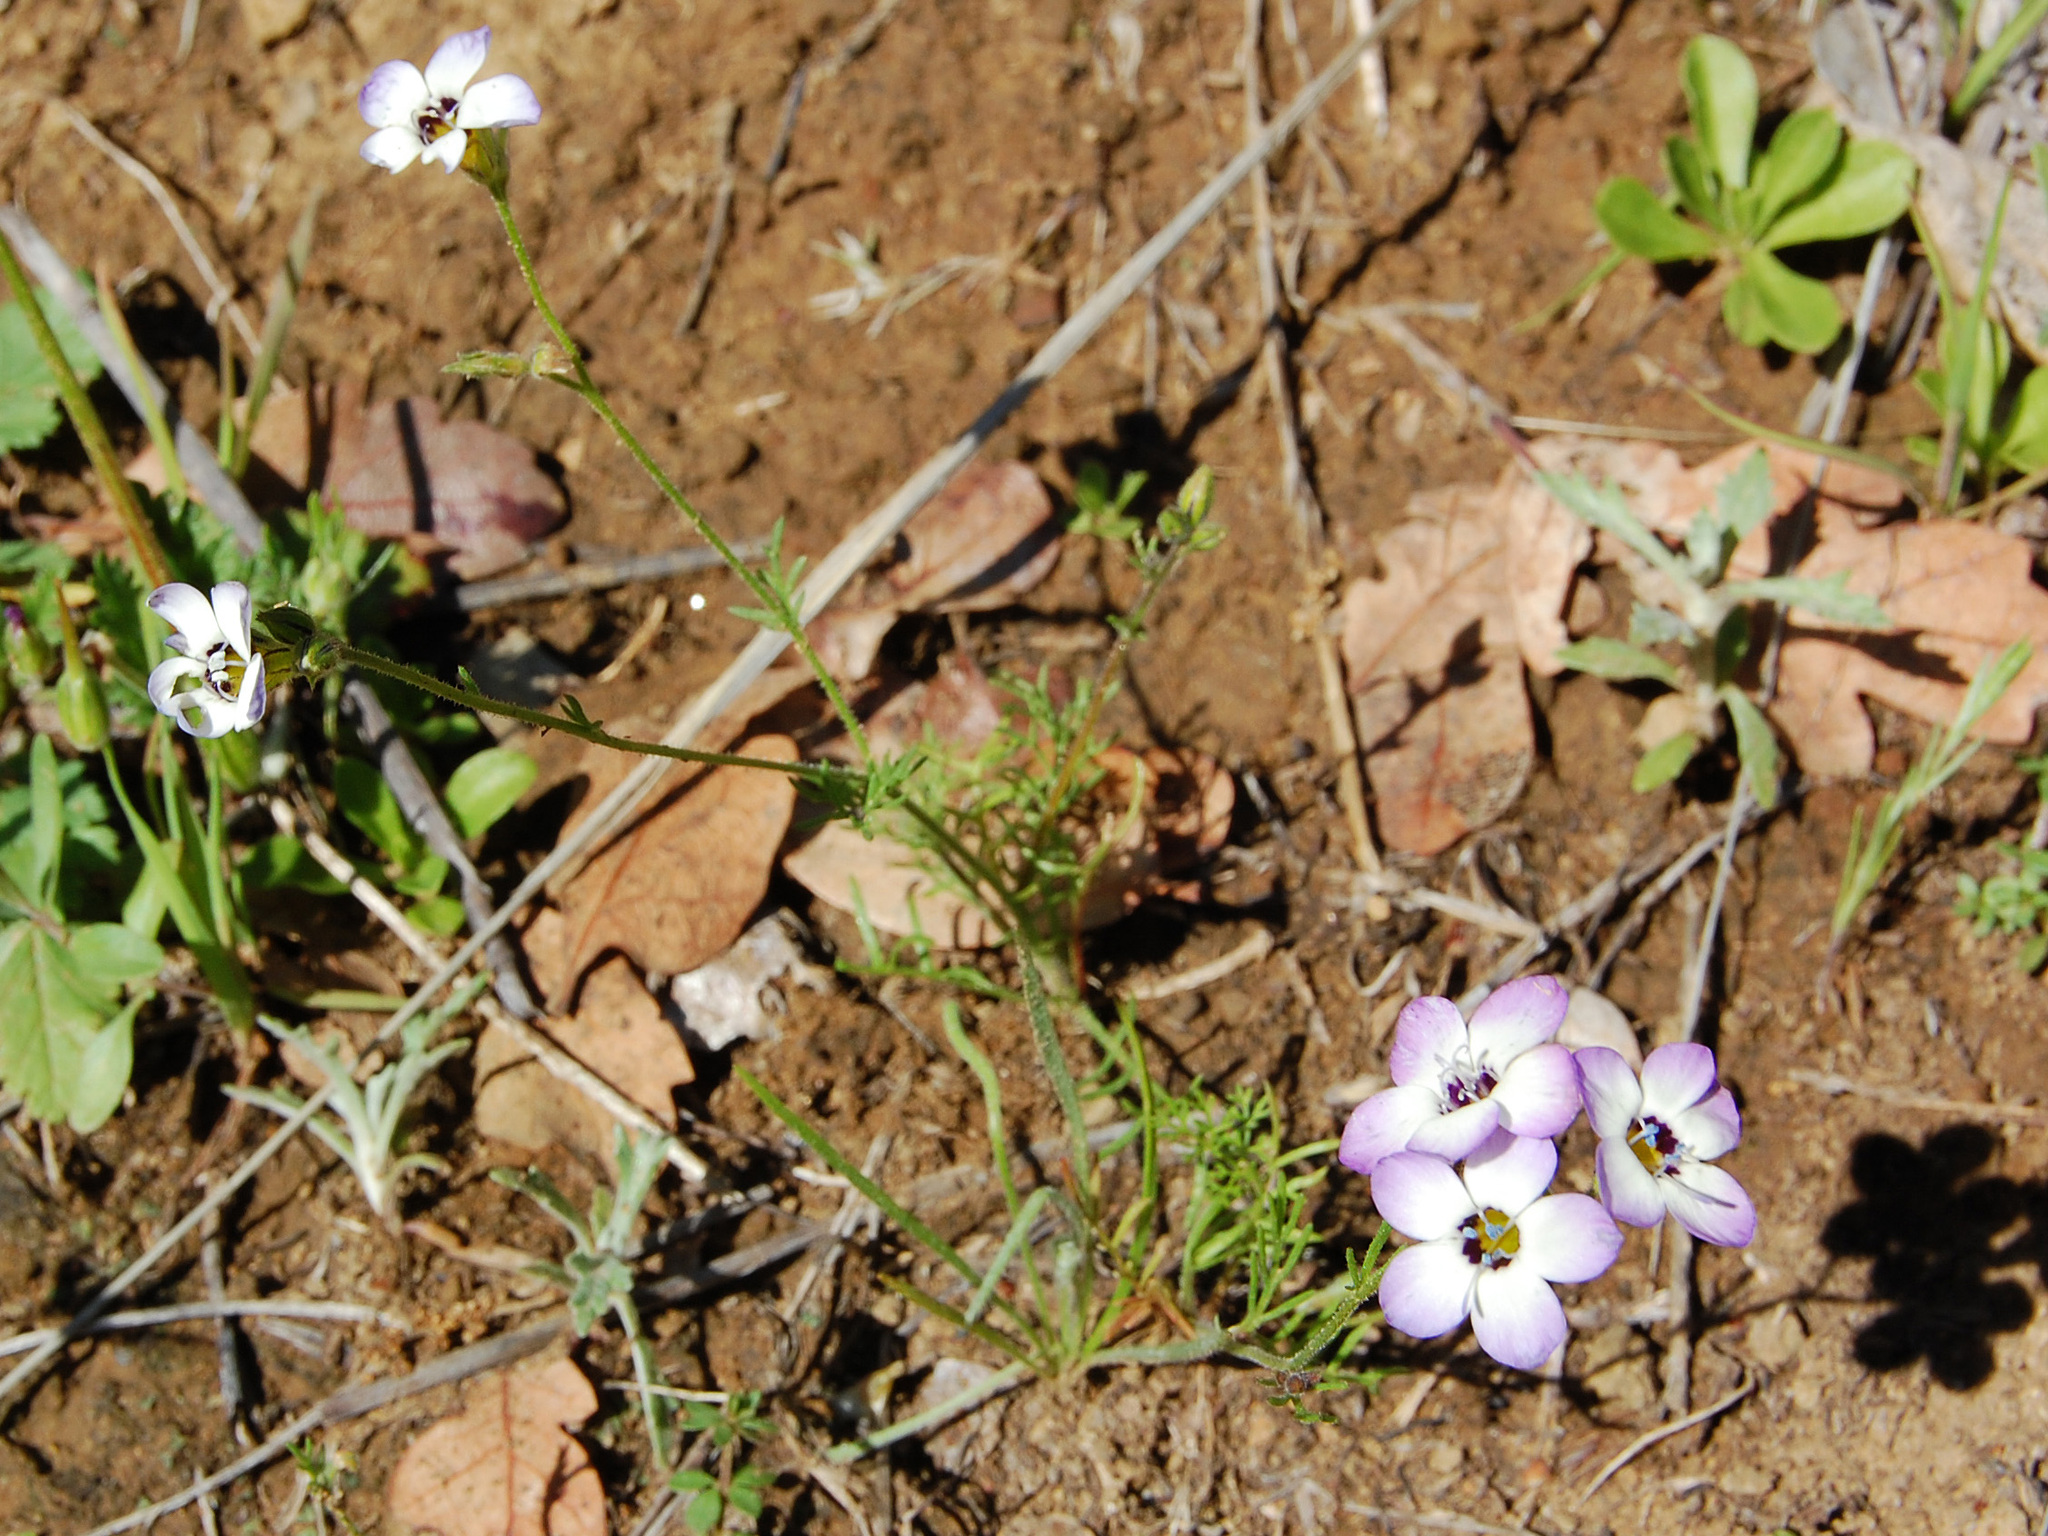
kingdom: Plantae
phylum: Tracheophyta
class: Magnoliopsida
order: Ericales
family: Polemoniaceae
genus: Gilia
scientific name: Gilia tricolor
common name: Bird's-eyes
